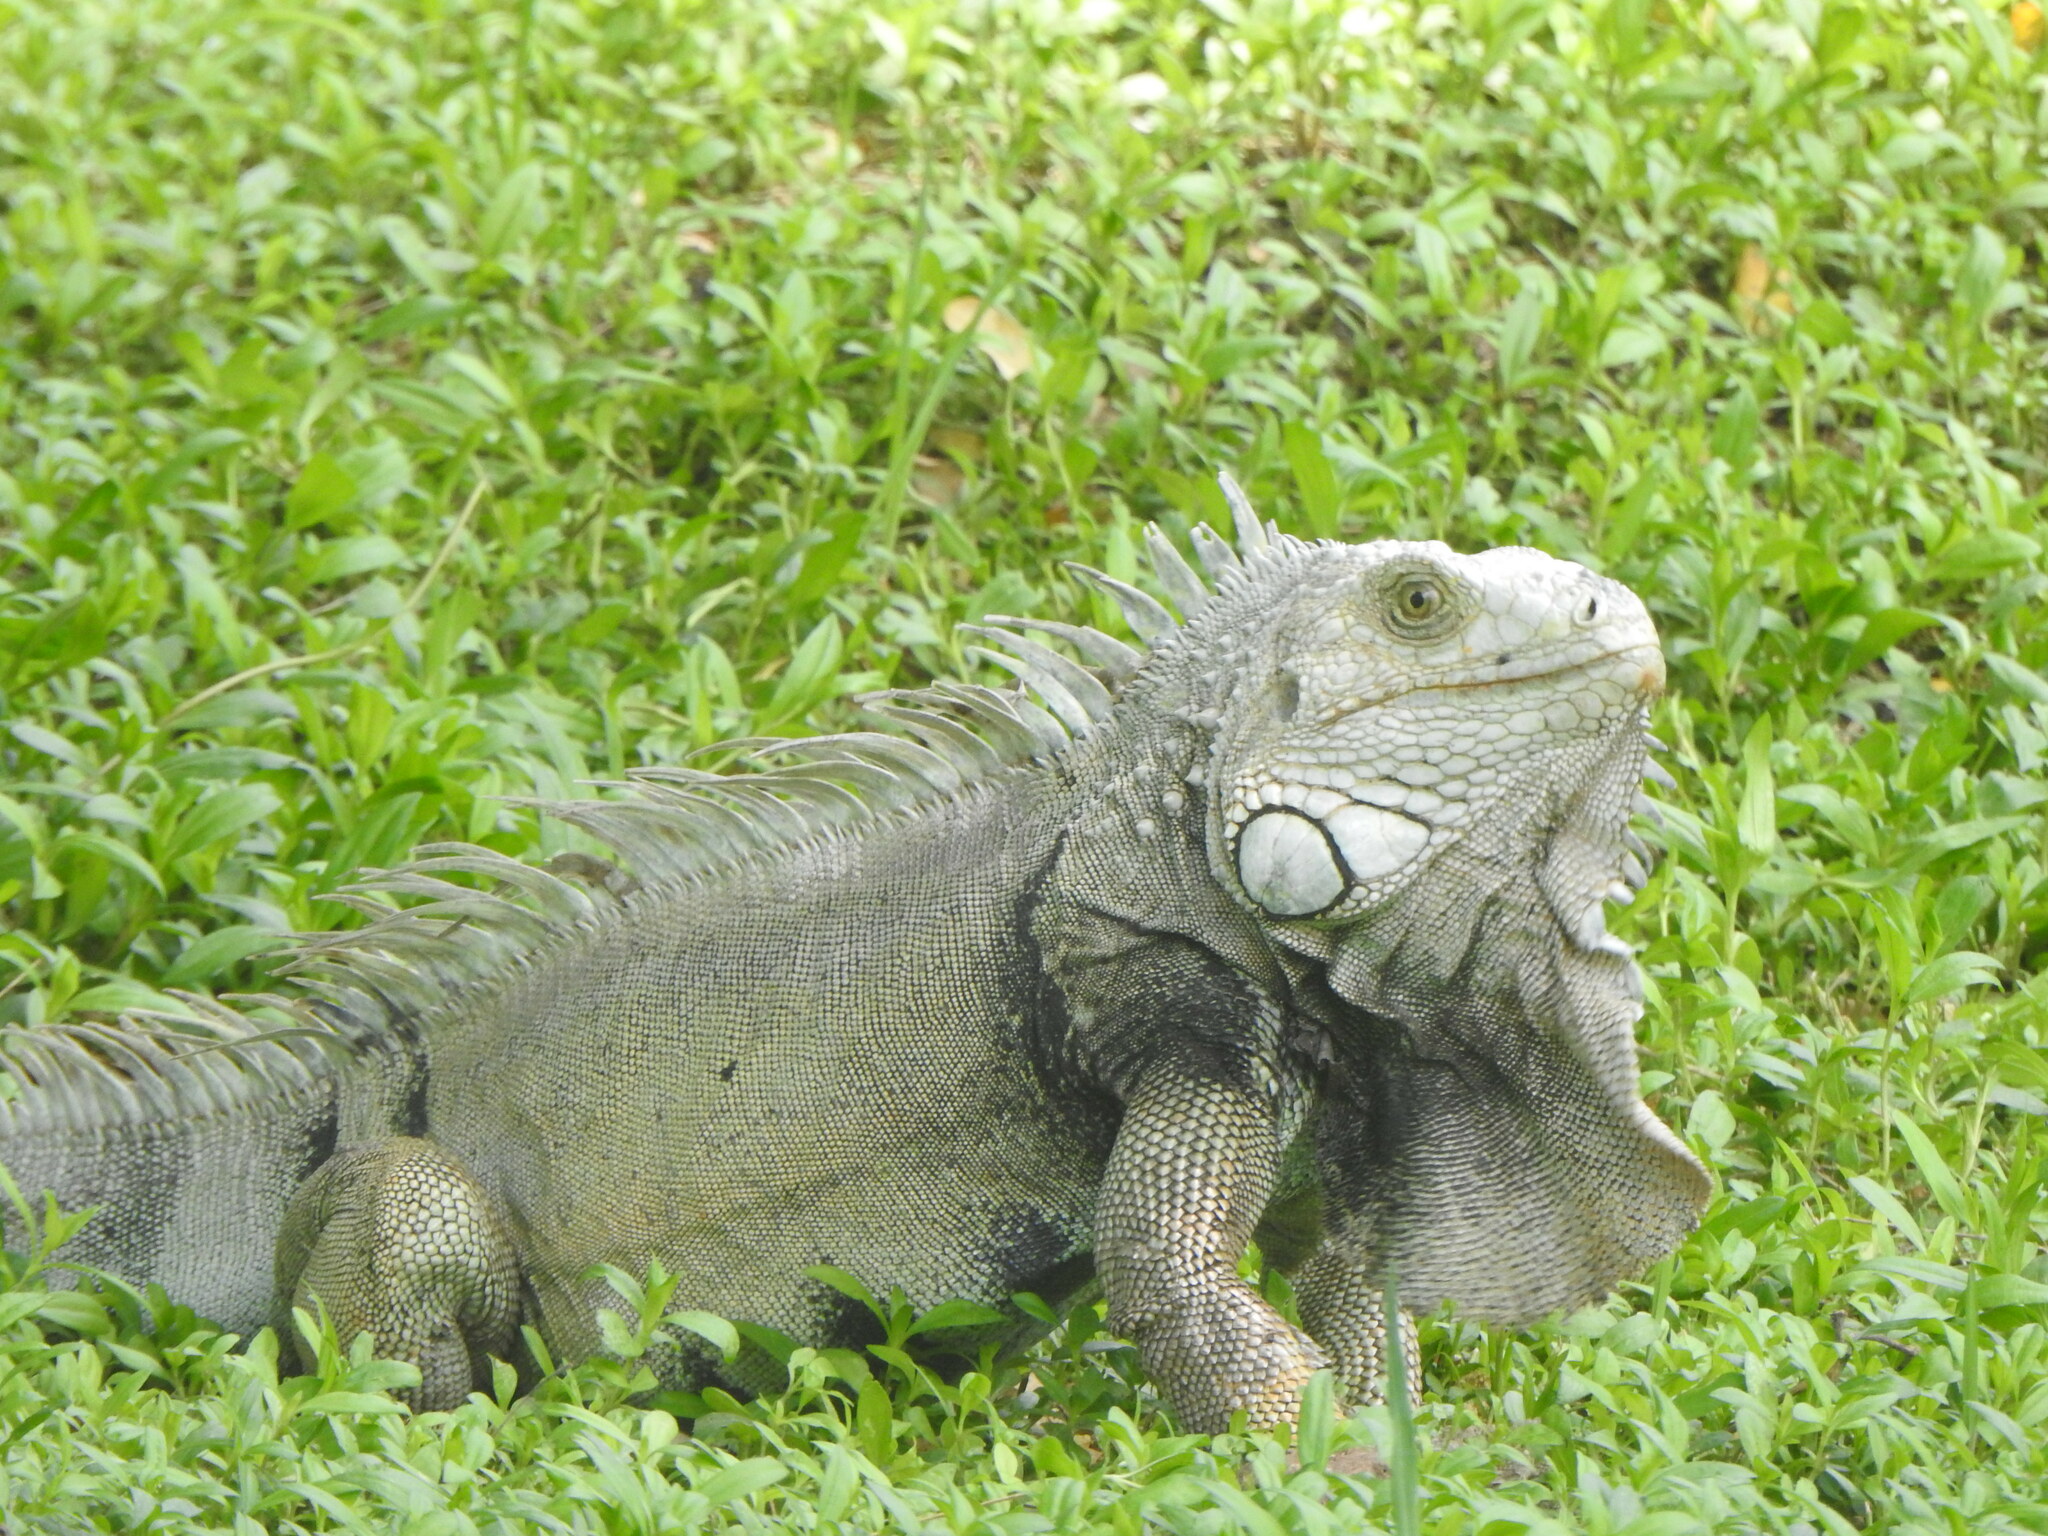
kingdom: Animalia
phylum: Chordata
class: Squamata
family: Iguanidae
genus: Iguana
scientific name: Iguana iguana
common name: Green iguana
